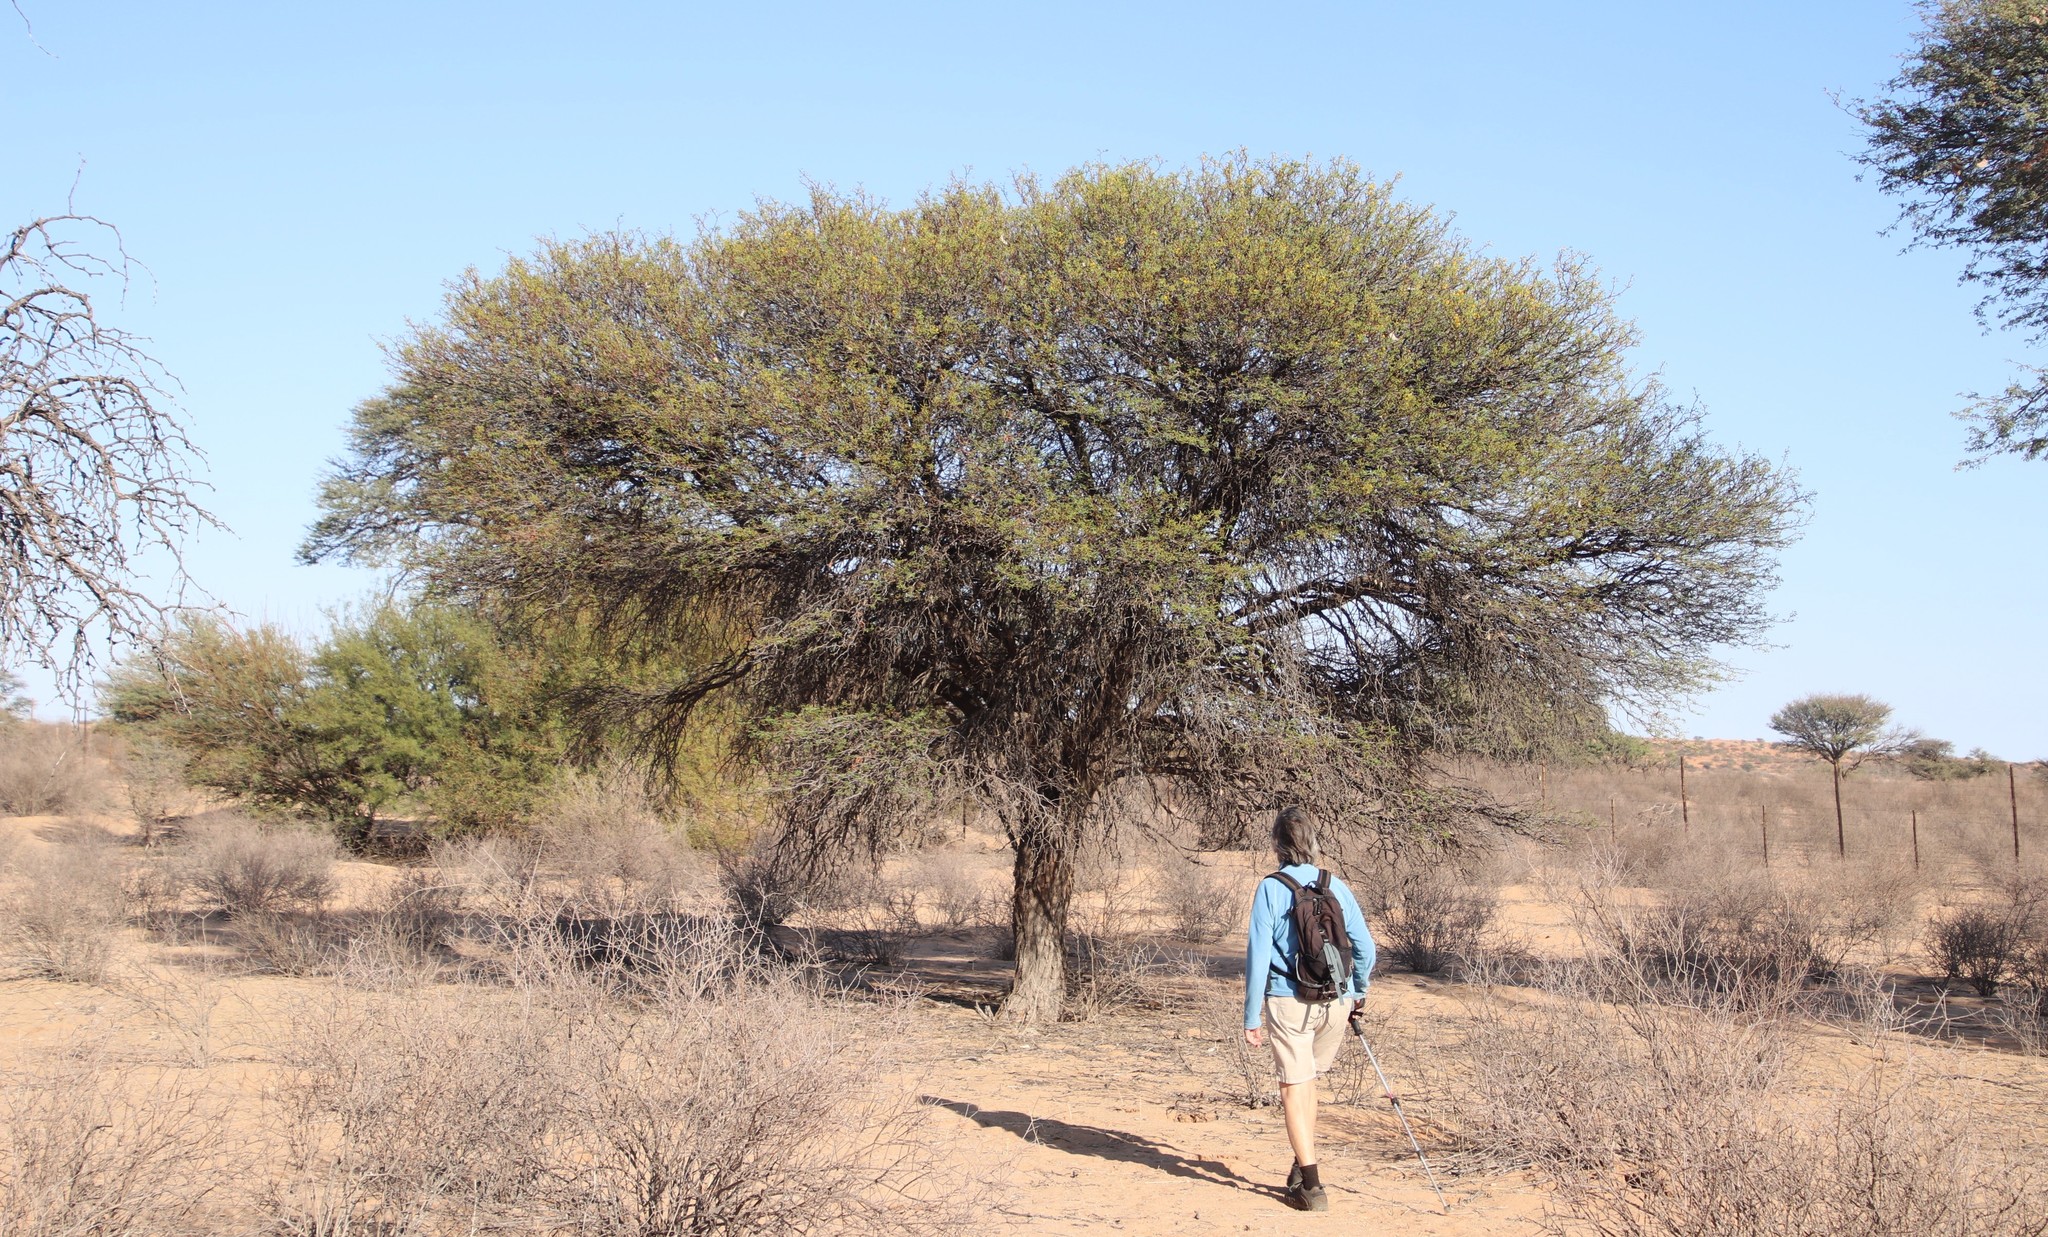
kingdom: Plantae
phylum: Tracheophyta
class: Magnoliopsida
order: Fabales
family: Fabaceae
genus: Vachellia
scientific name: Vachellia erioloba
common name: Camel thorn
